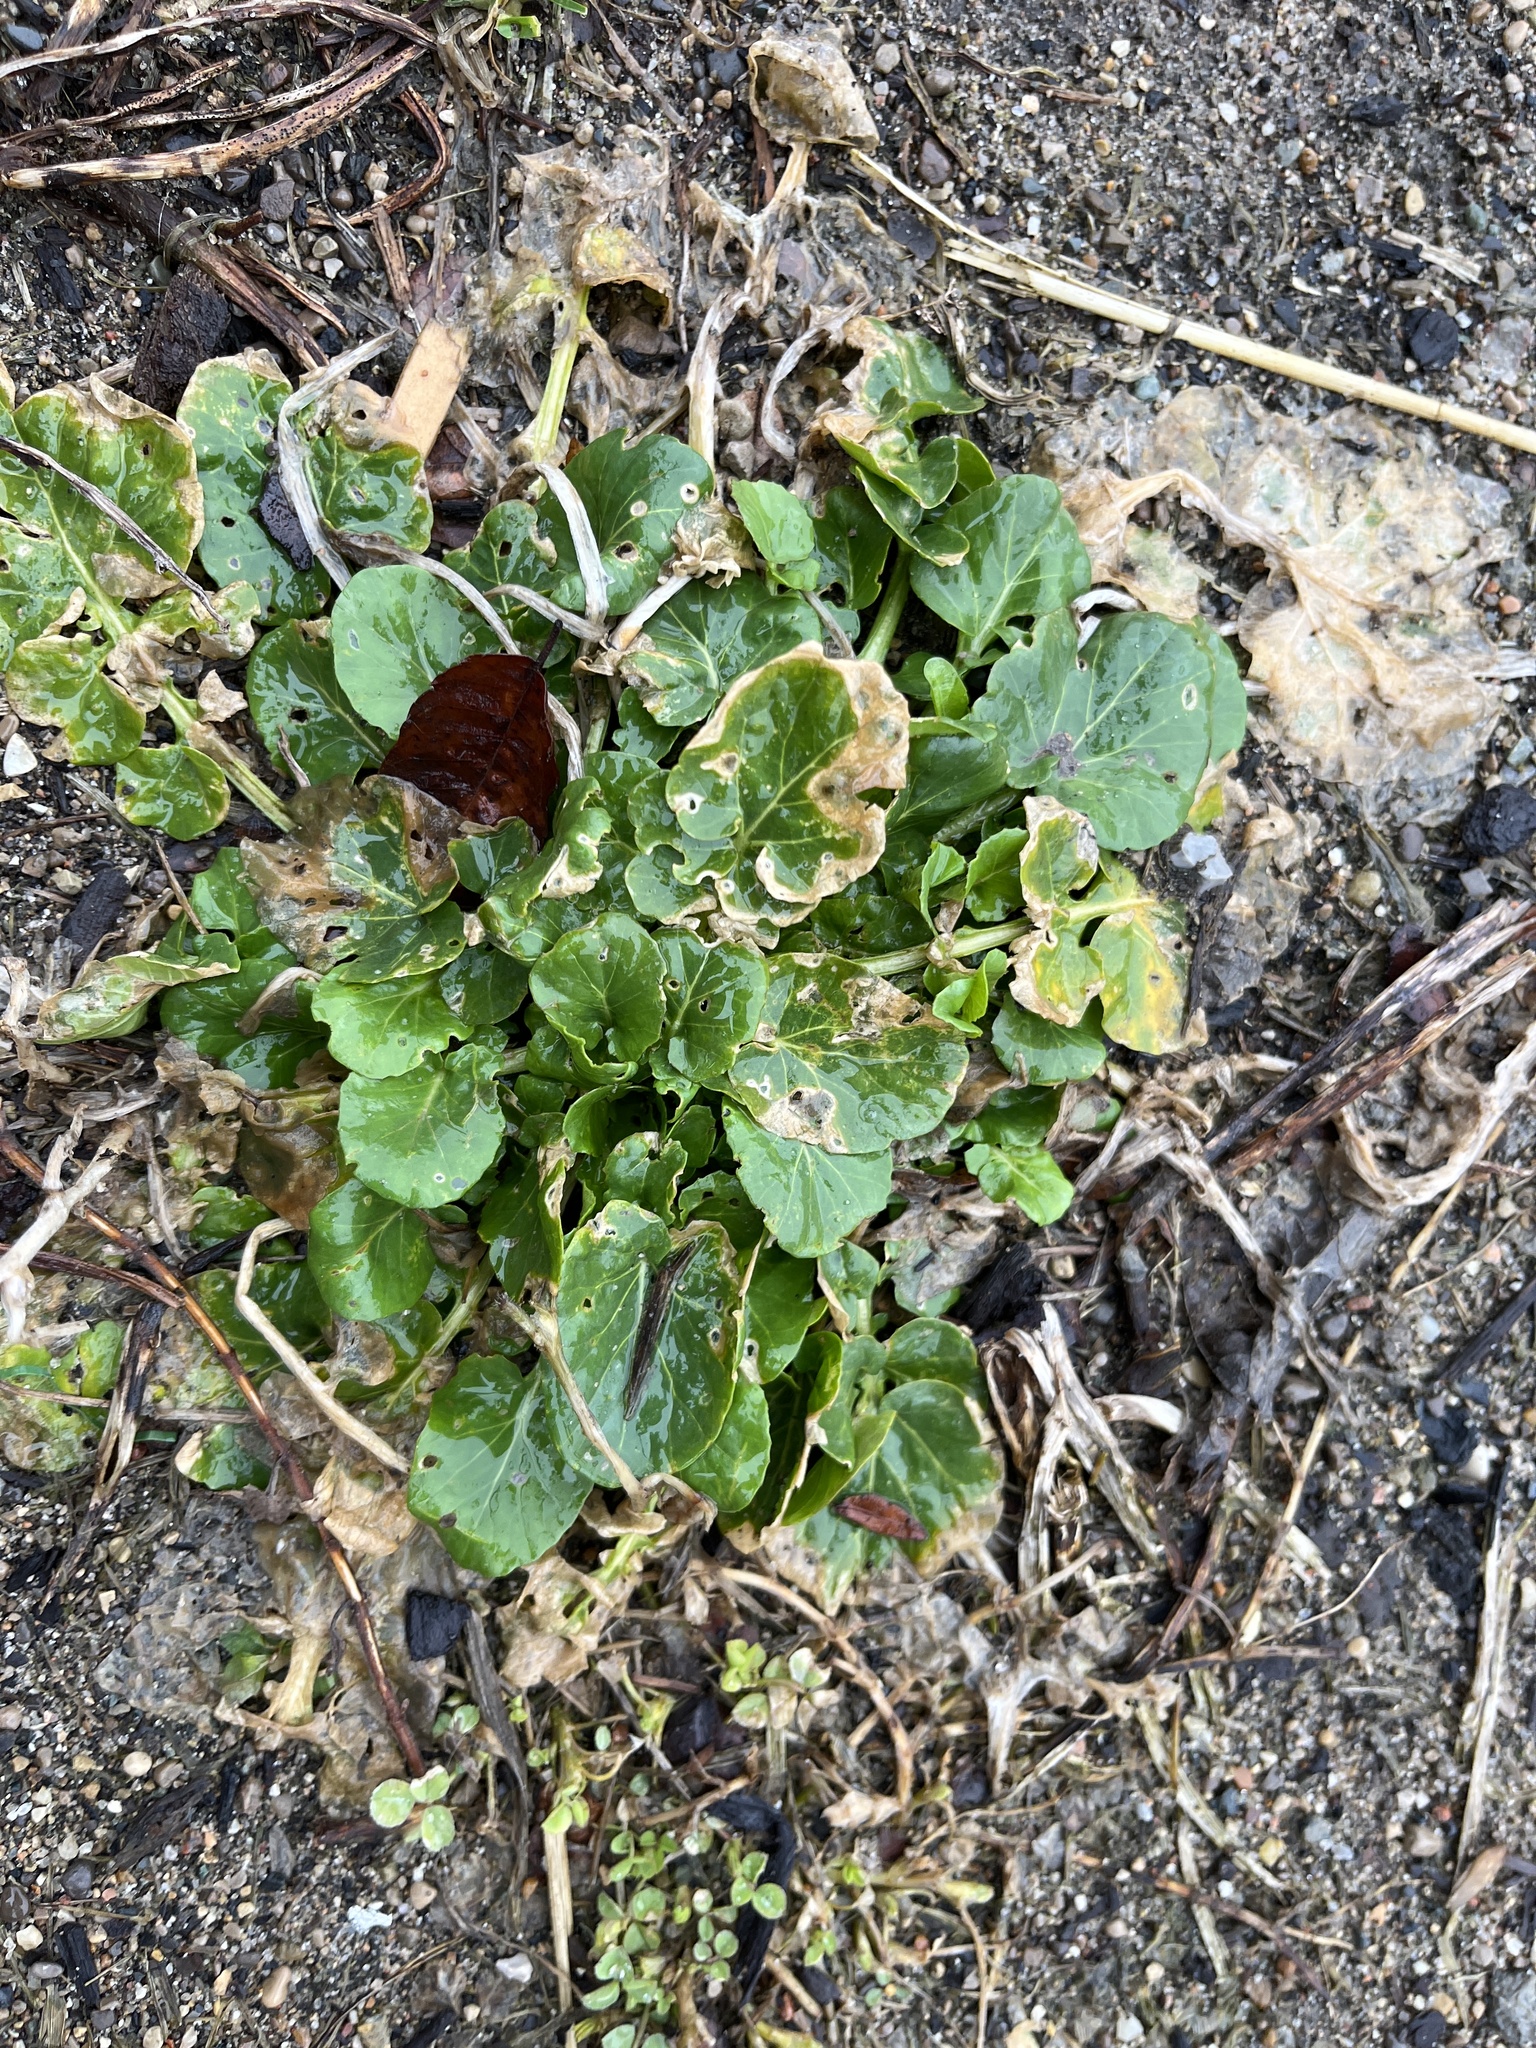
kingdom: Plantae
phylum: Tracheophyta
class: Magnoliopsida
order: Brassicales
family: Brassicaceae
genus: Barbarea
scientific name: Barbarea vulgaris
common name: Cressy-greens
